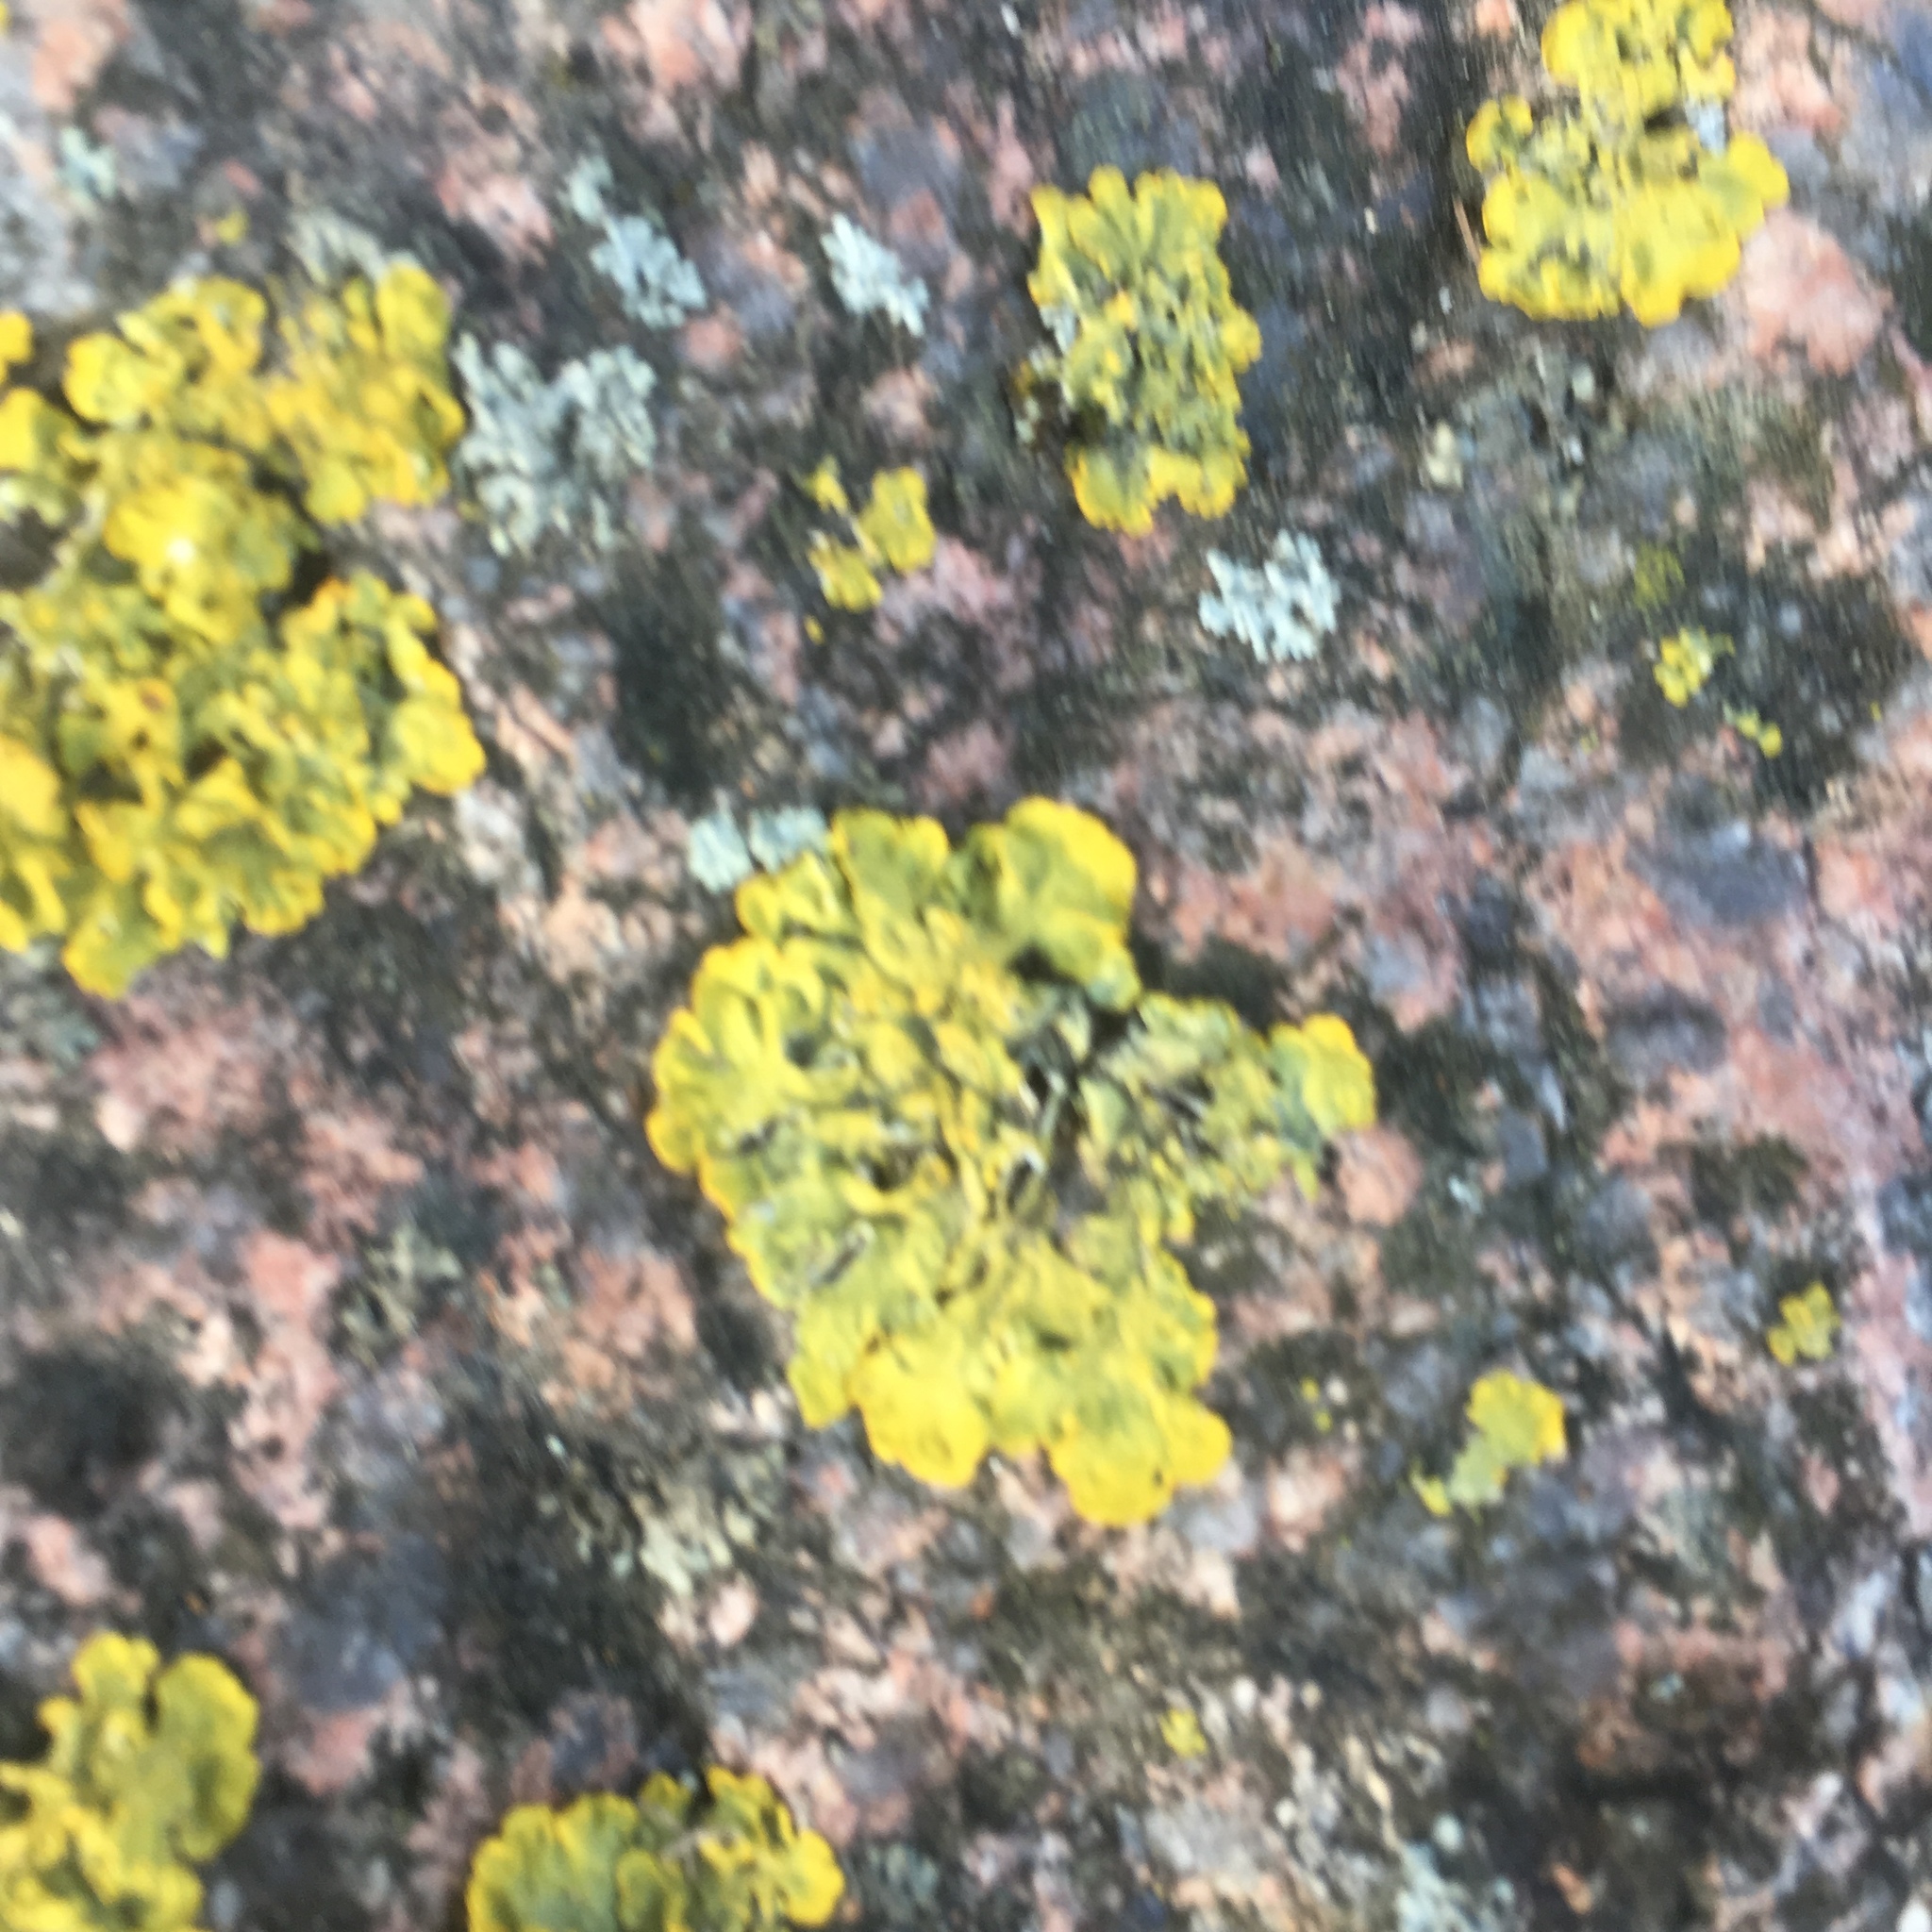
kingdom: Fungi
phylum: Ascomycota
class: Lecanoromycetes
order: Teloschistales
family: Teloschistaceae
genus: Xanthoria
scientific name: Xanthoria parietina
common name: Common orange lichen
